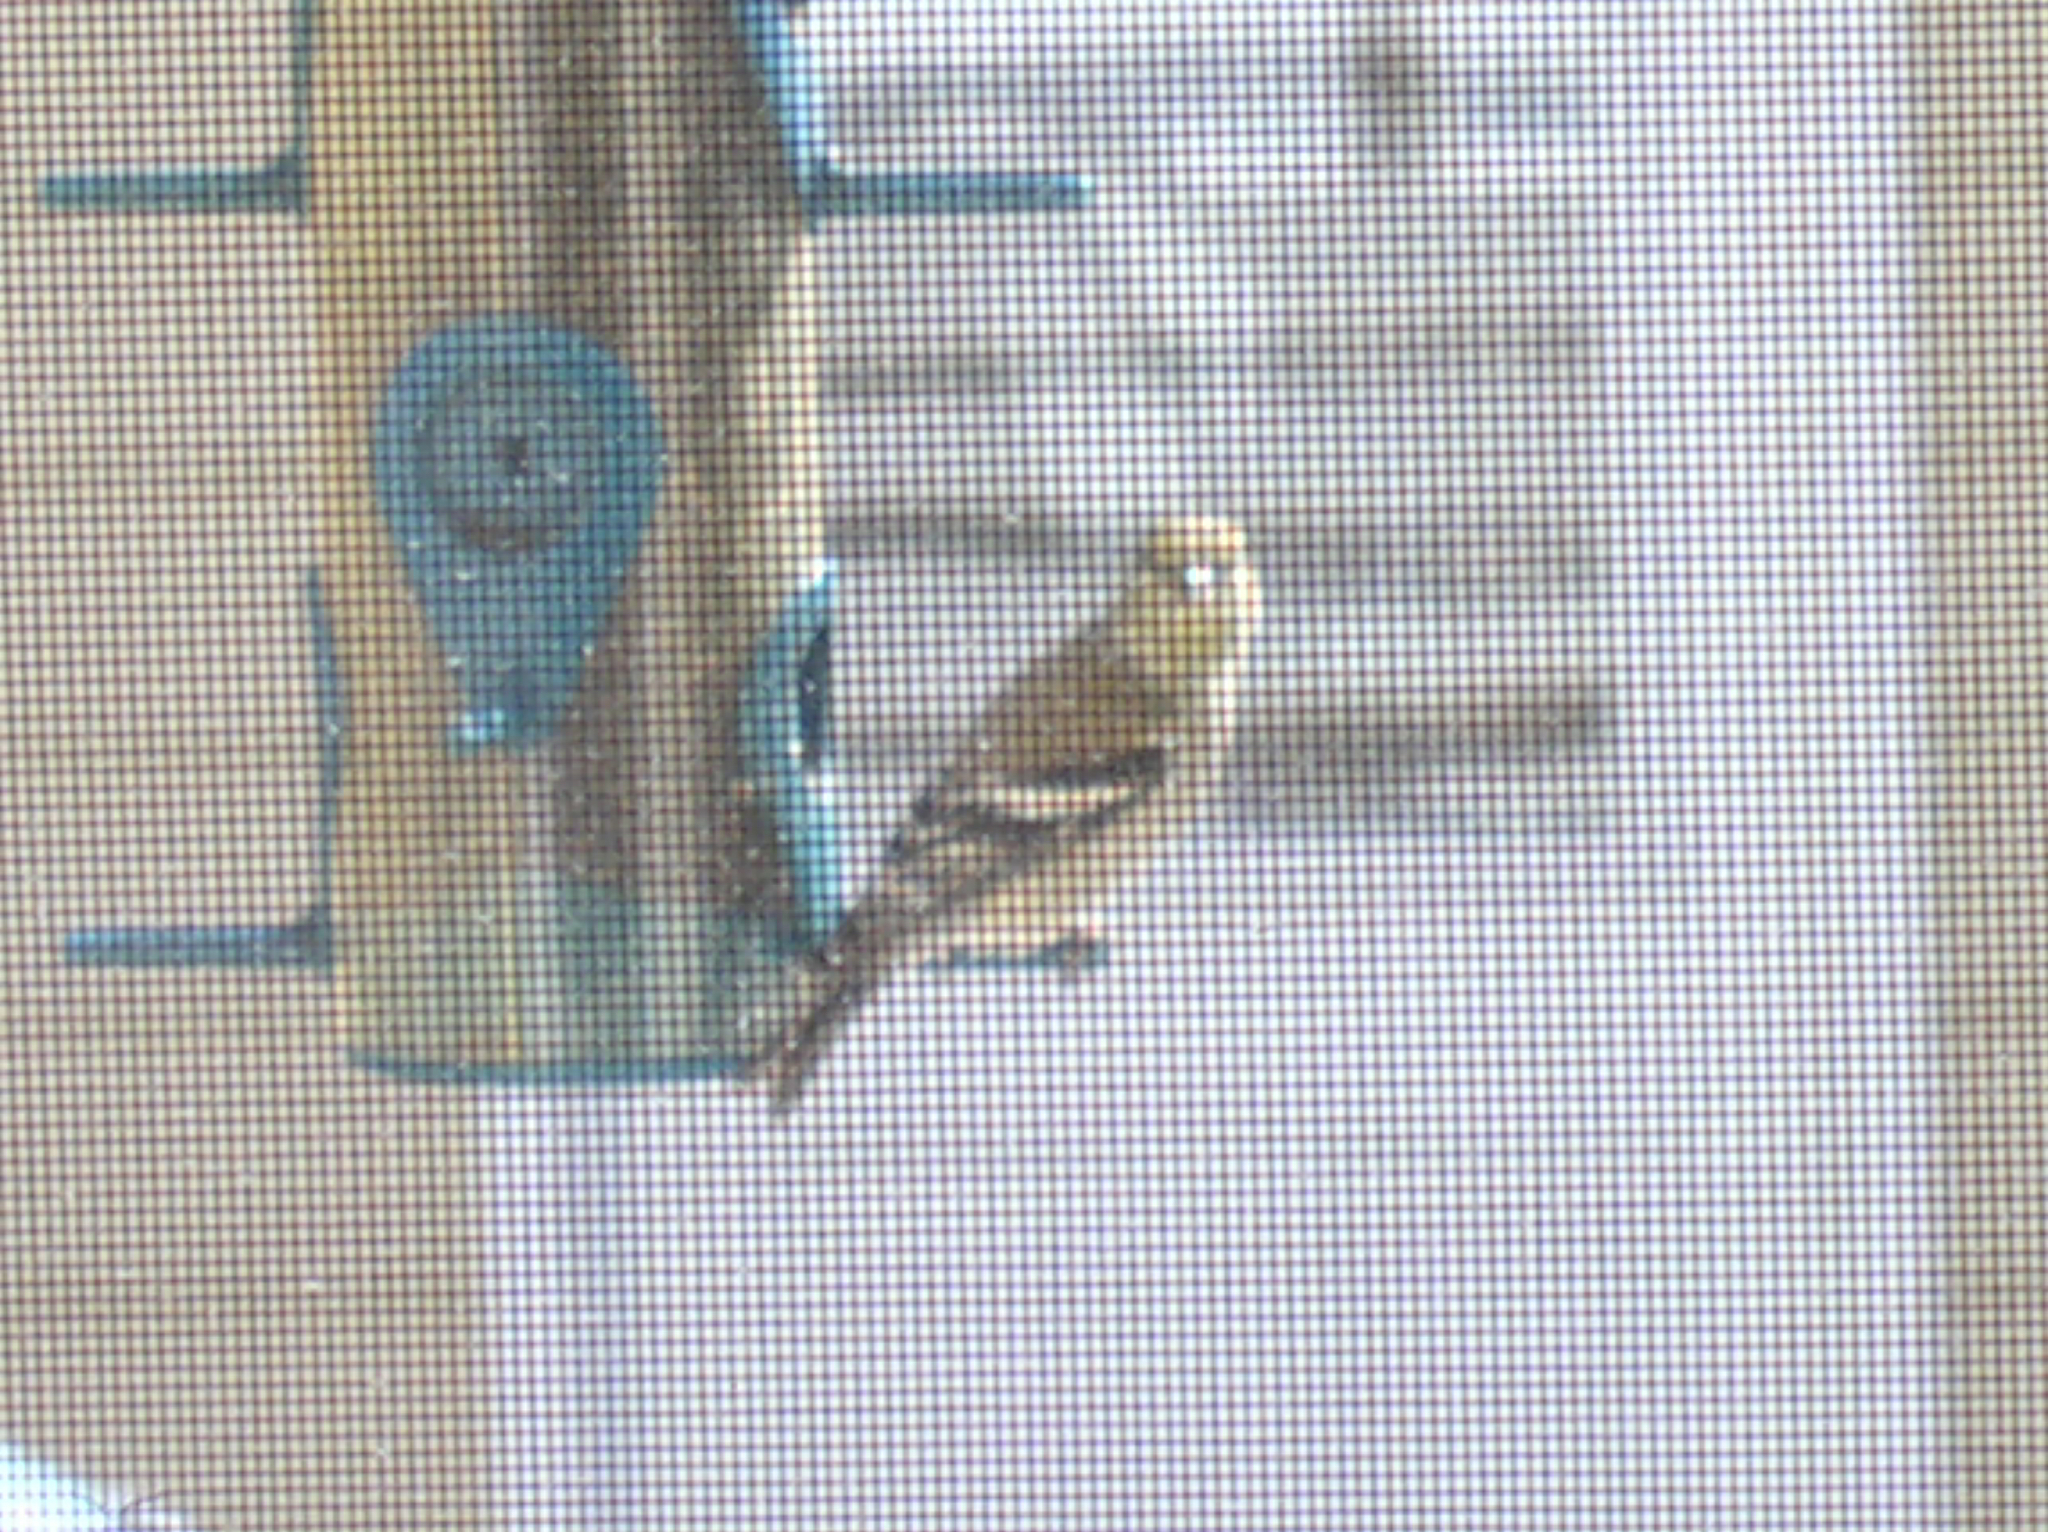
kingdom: Animalia
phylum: Chordata
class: Aves
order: Passeriformes
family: Fringillidae
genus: Spinus
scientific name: Spinus tristis
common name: American goldfinch
